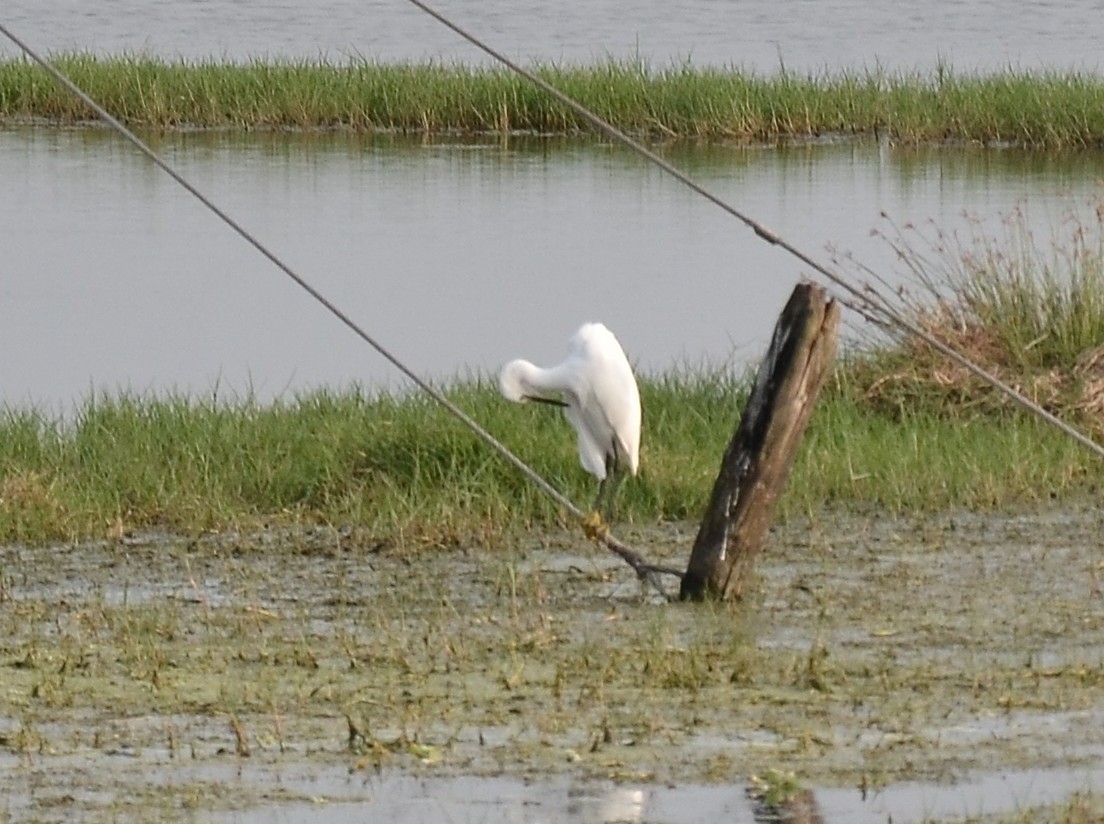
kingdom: Animalia
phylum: Chordata
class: Aves
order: Pelecaniformes
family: Ardeidae
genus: Egretta
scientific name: Egretta garzetta
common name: Little egret
